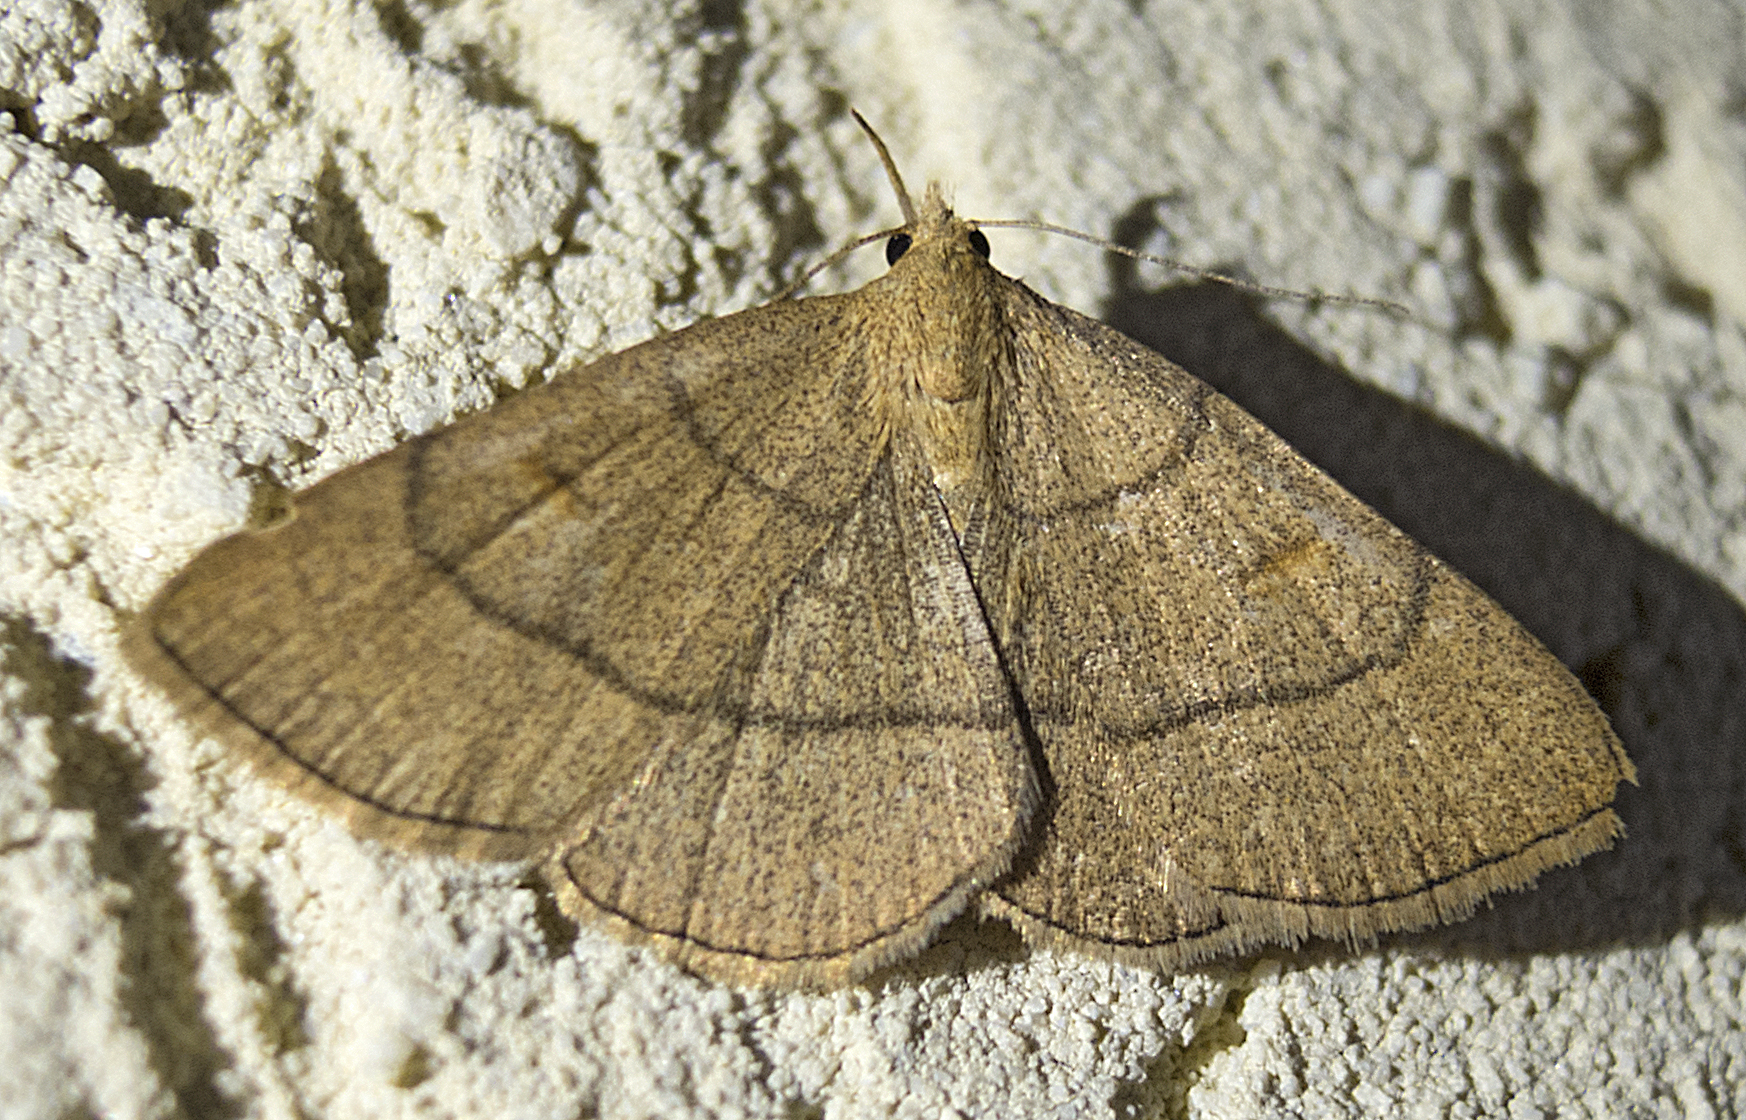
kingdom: Animalia
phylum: Arthropoda
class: Insecta
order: Lepidoptera
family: Erebidae
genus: Paracolax
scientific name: Paracolax tristalis
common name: Clay fan-foot
